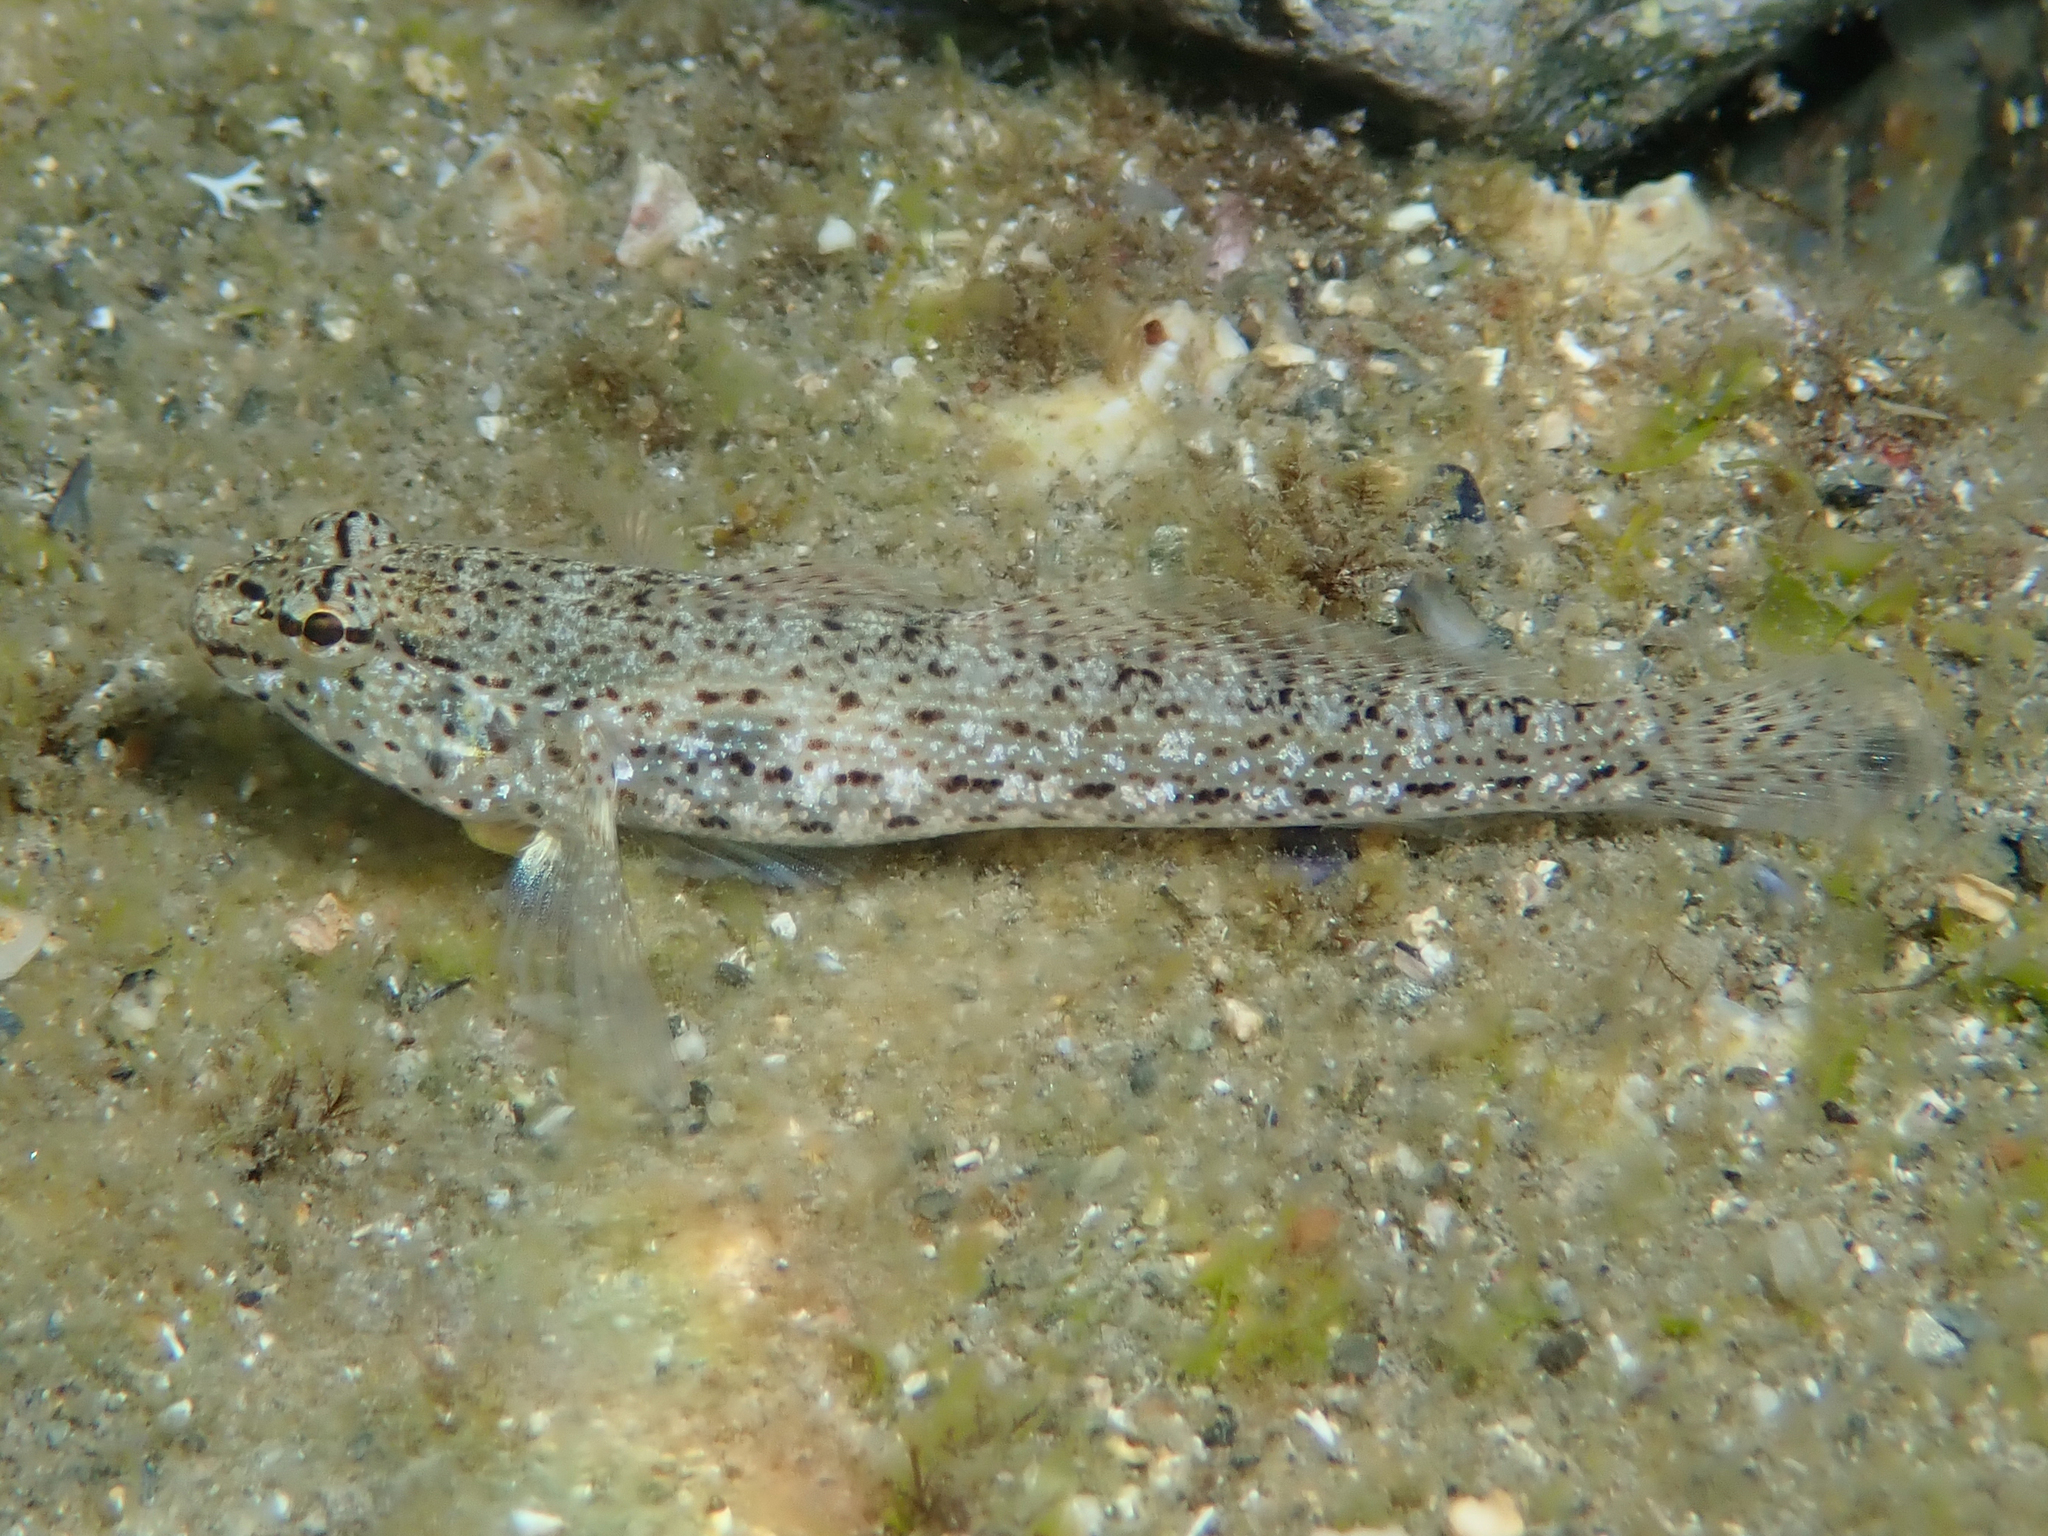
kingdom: Animalia
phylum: Chordata
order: Perciformes
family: Gobiidae
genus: Gobius
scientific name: Gobius incognitus
